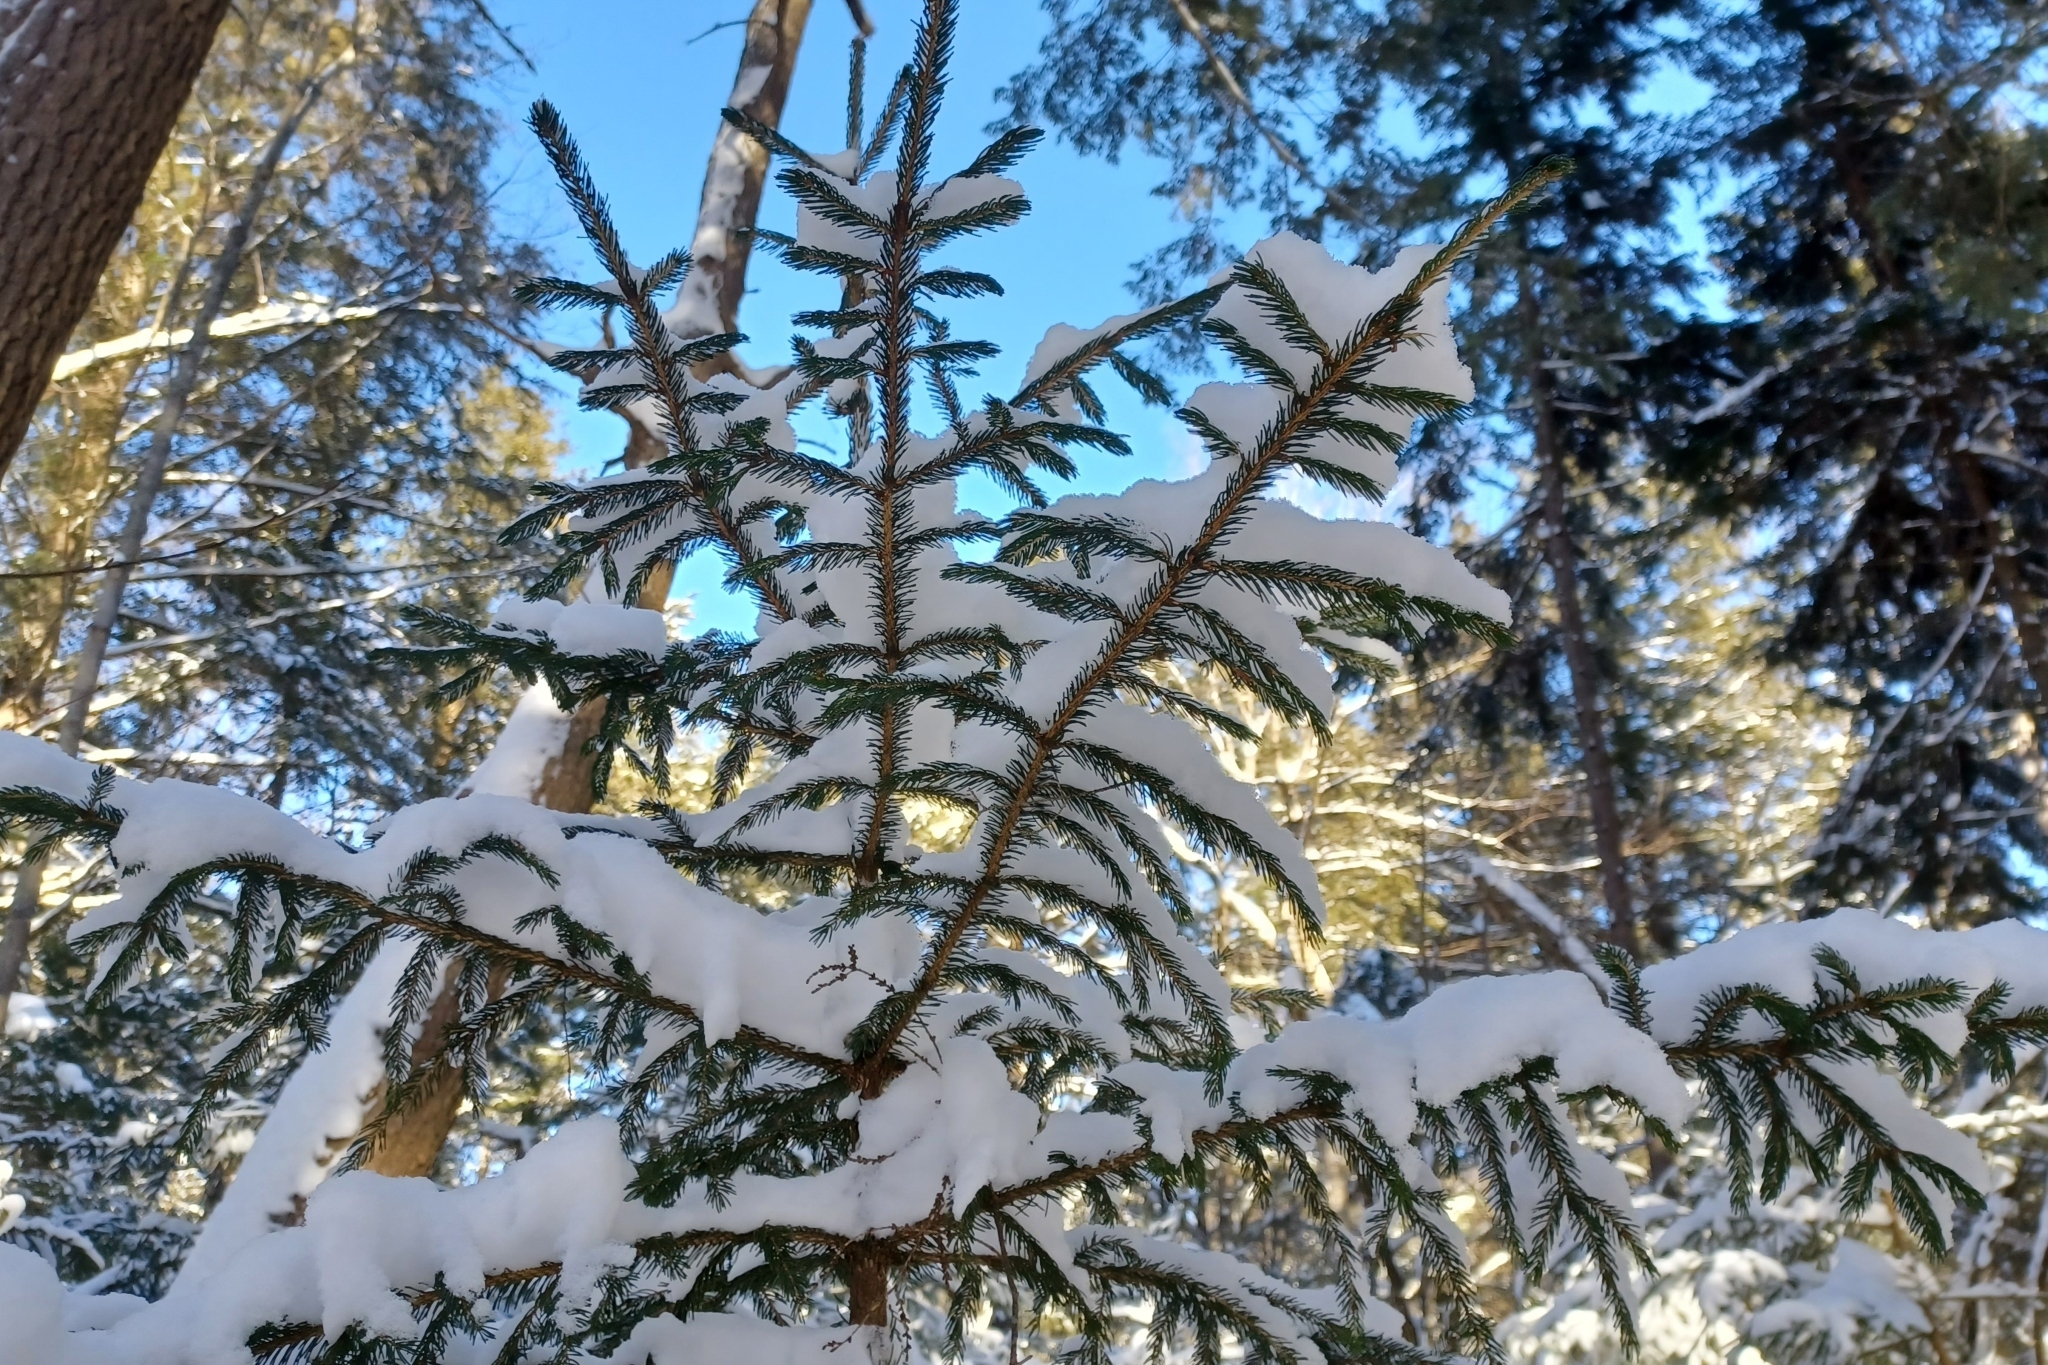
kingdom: Plantae
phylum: Tracheophyta
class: Pinopsida
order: Pinales
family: Pinaceae
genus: Picea
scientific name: Picea rubens
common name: Red spruce
